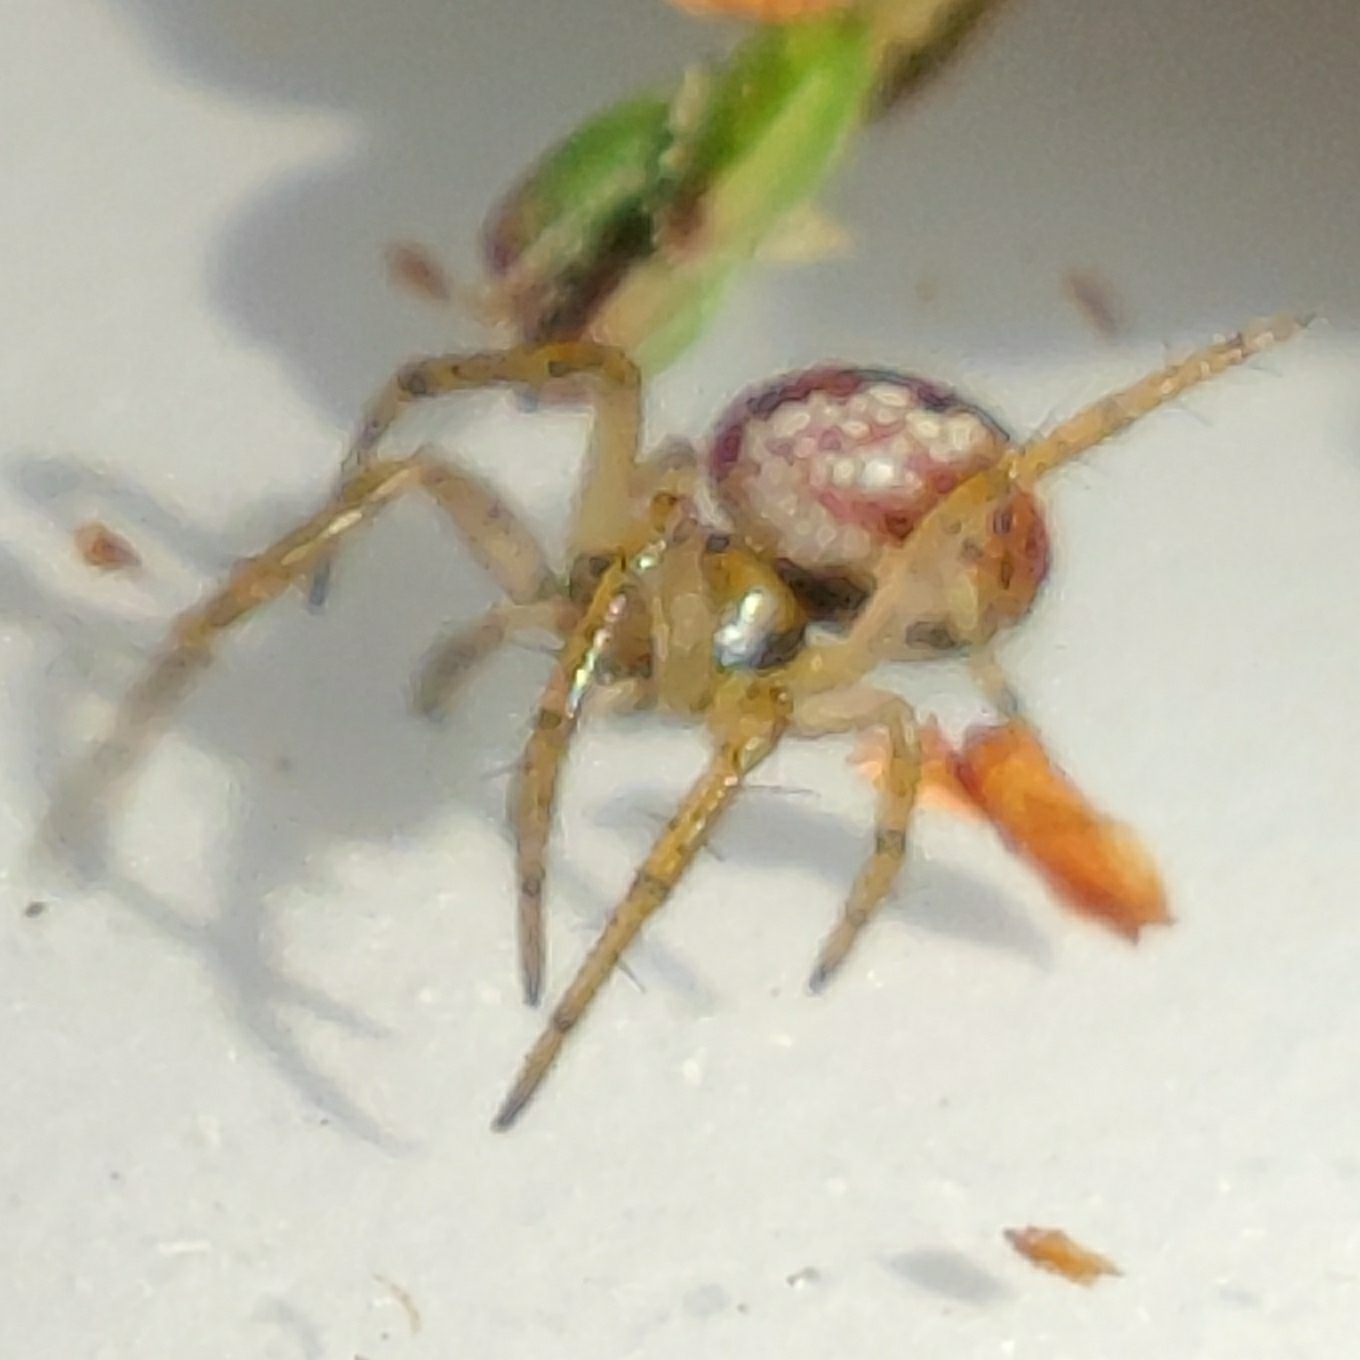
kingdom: Animalia
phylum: Arthropoda
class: Arachnida
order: Araneae
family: Araneidae
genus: Mangora
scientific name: Mangora acalypha
